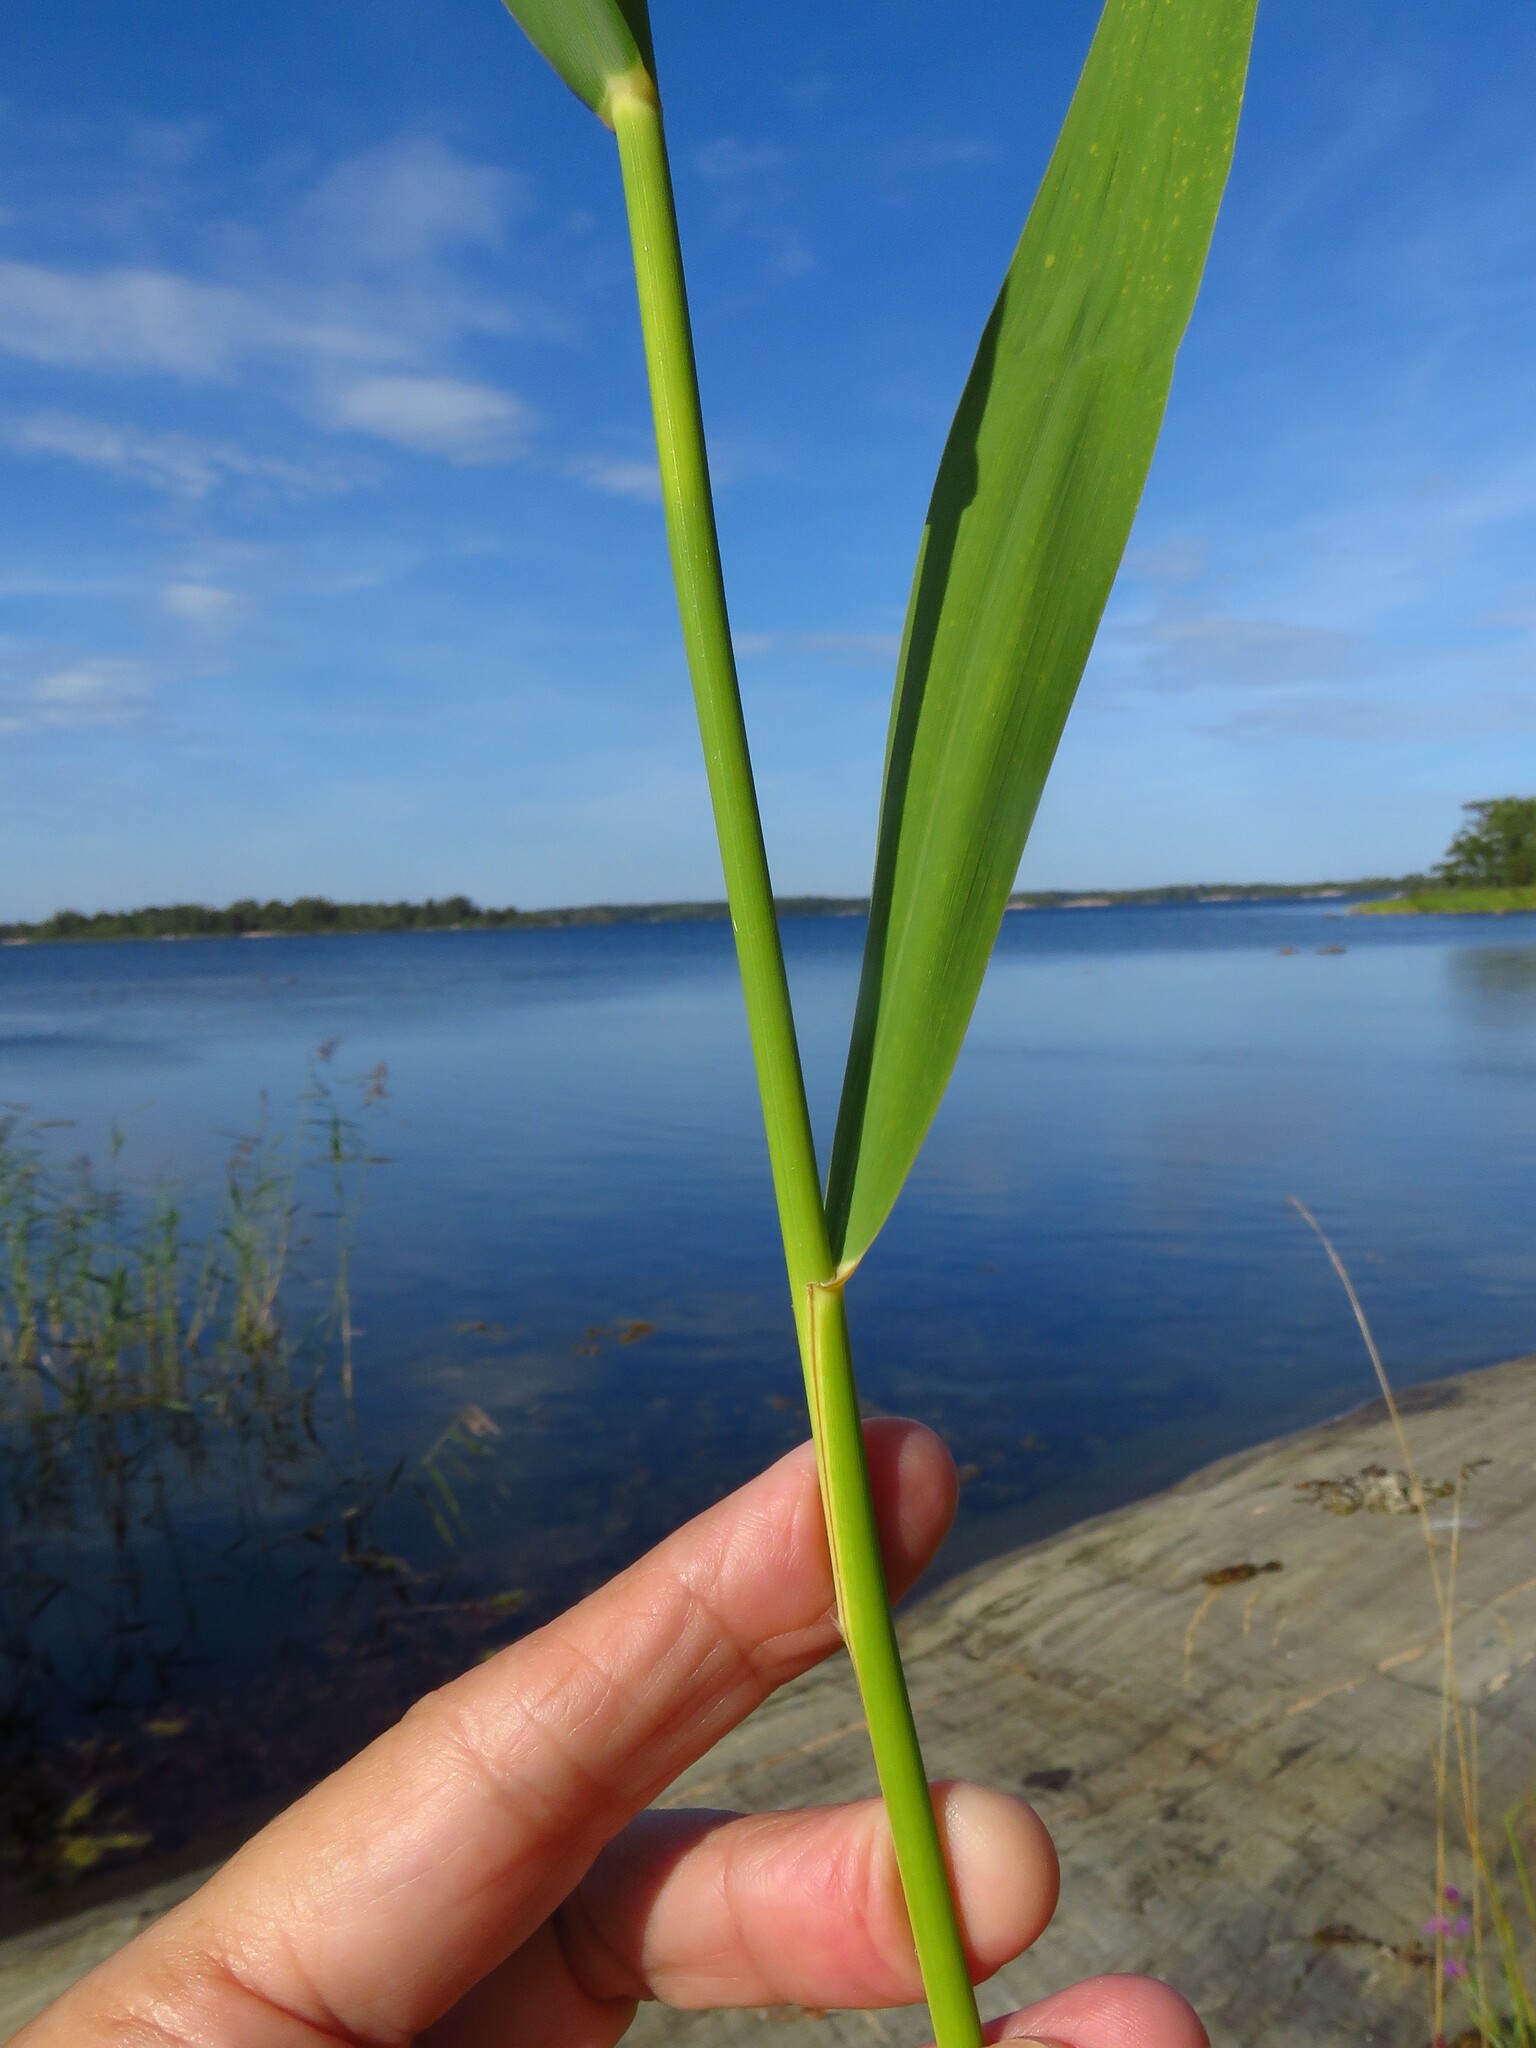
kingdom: Plantae
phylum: Tracheophyta
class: Liliopsida
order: Poales
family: Poaceae
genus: Phragmites
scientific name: Phragmites australis
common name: Common reed
